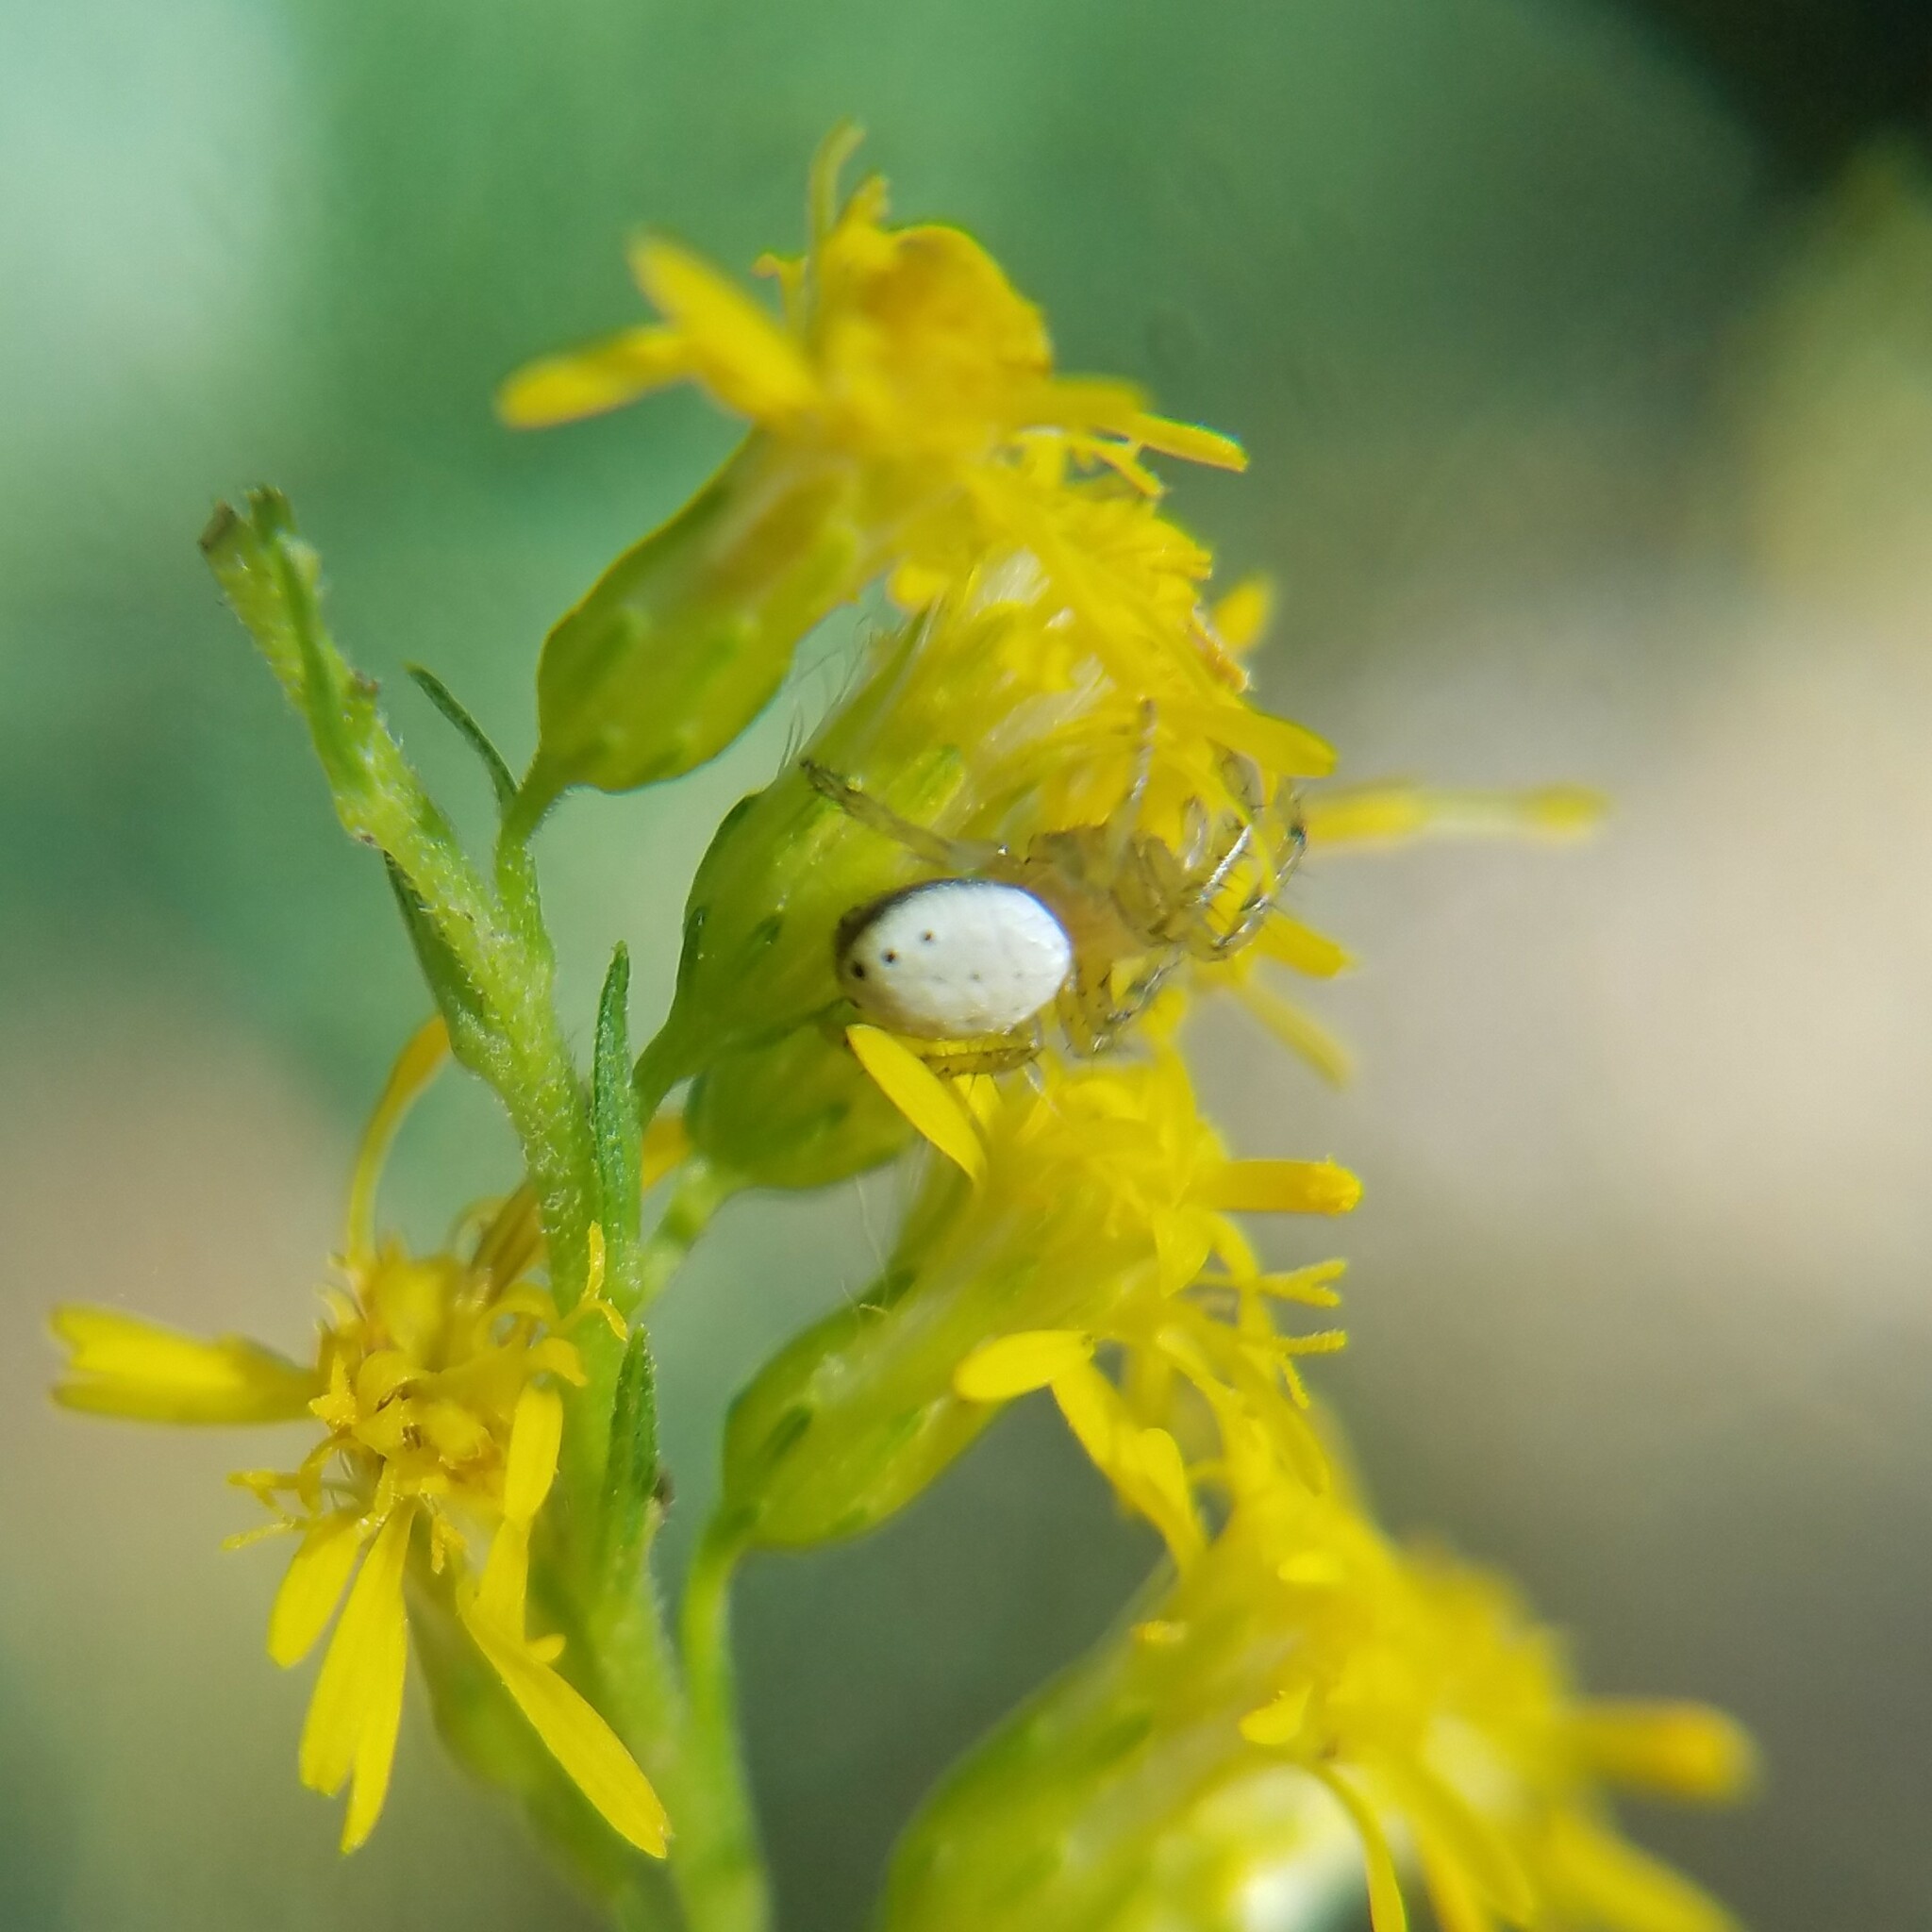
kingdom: Animalia
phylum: Arthropoda
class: Arachnida
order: Araneae
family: Araneidae
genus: Araniella
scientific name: Araniella displicata
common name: Sixspotted orb weaver
